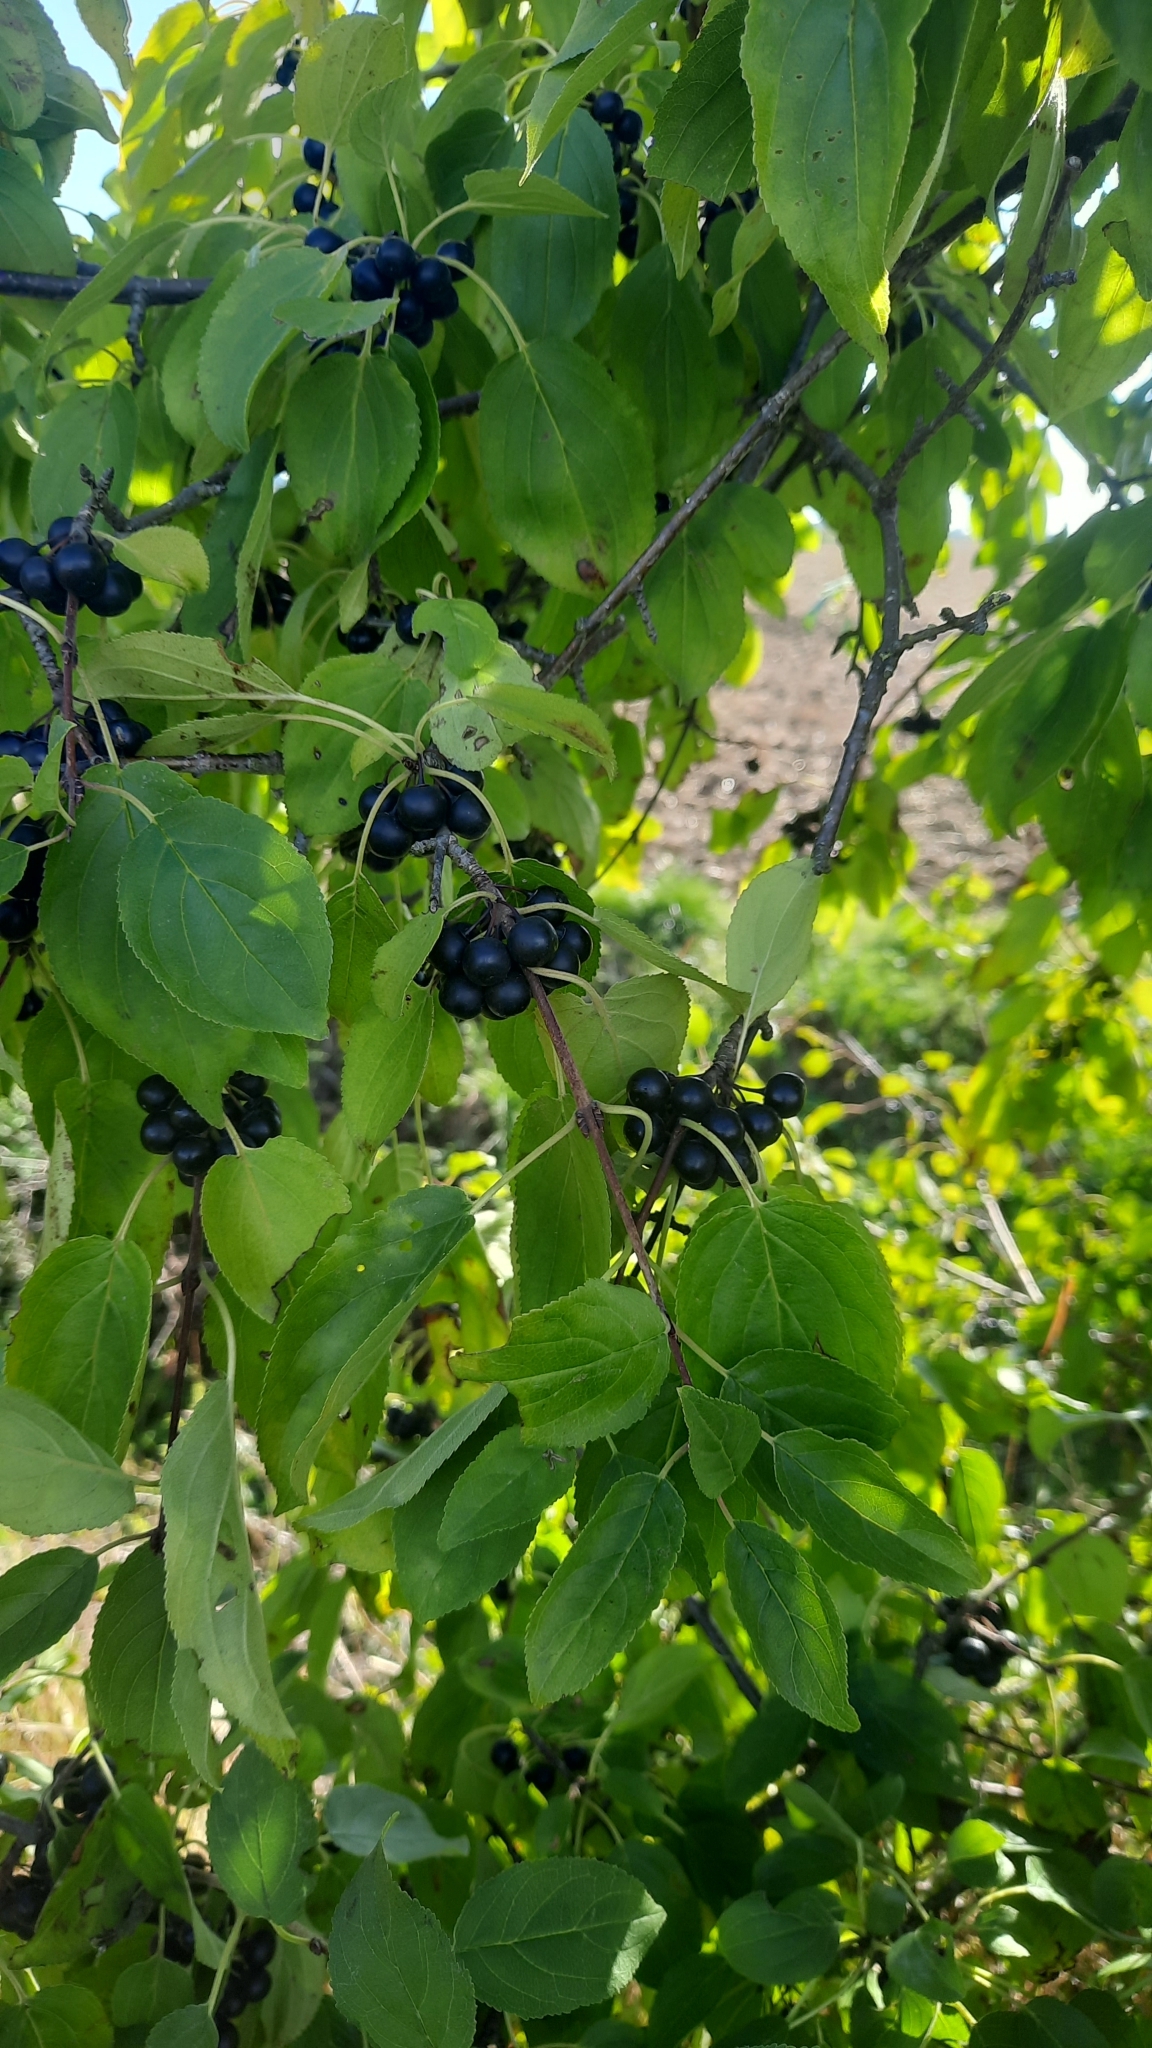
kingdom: Plantae
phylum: Tracheophyta
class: Magnoliopsida
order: Rosales
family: Rhamnaceae
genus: Rhamnus
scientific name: Rhamnus cathartica
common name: Common buckthorn
